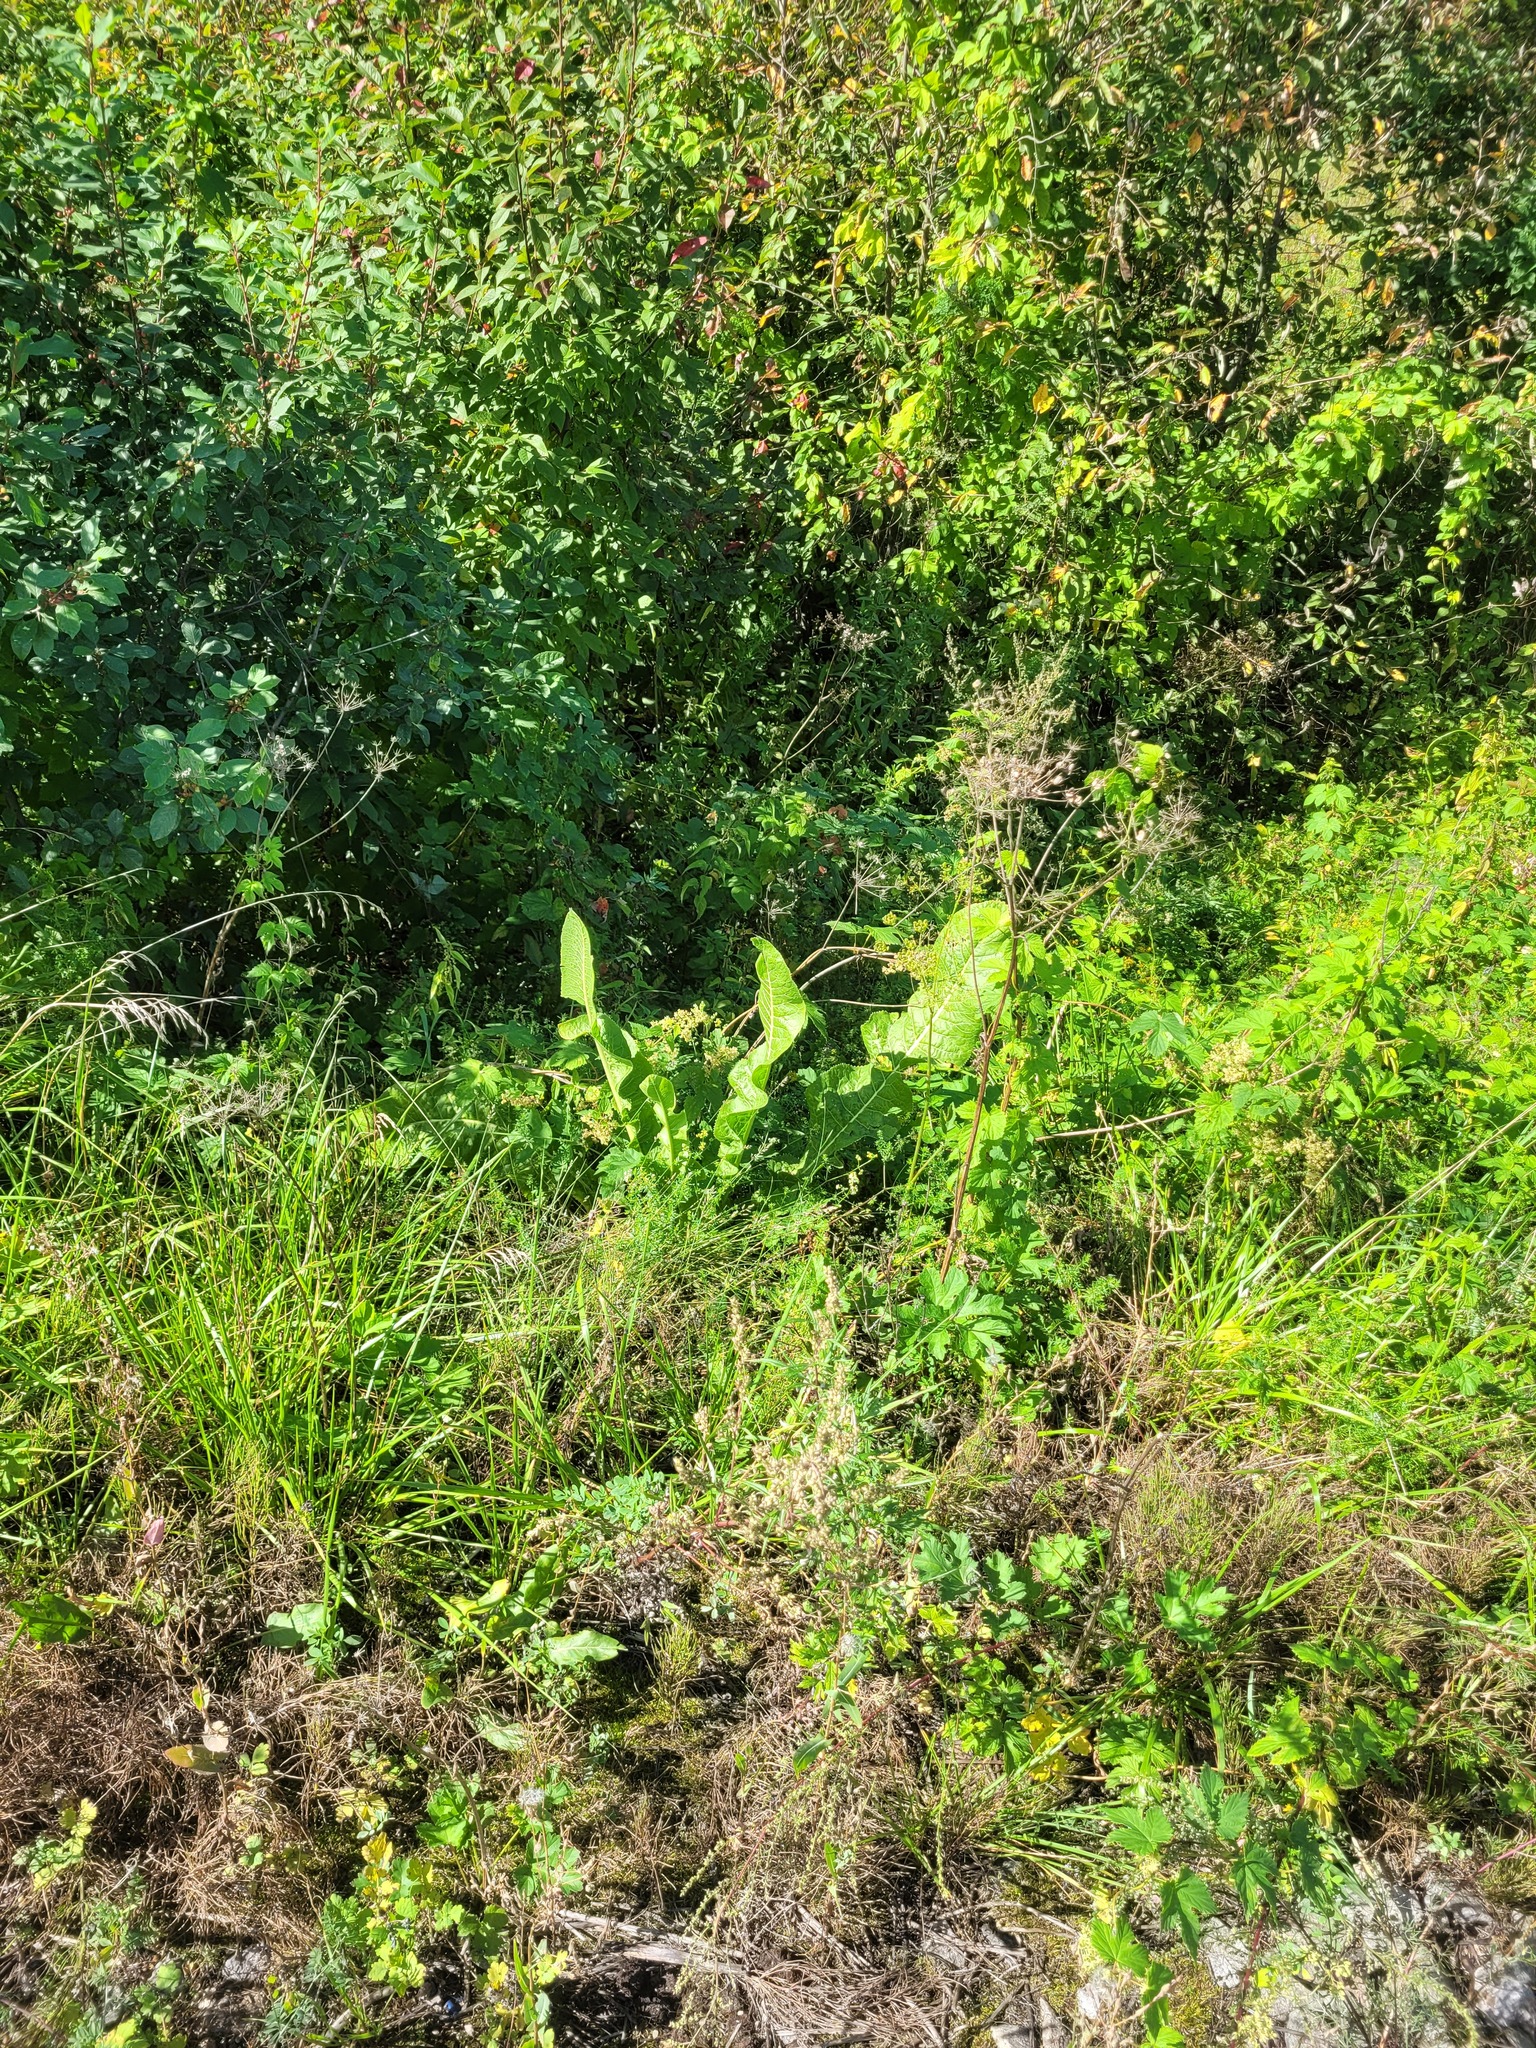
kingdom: Plantae
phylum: Tracheophyta
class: Magnoliopsida
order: Brassicales
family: Brassicaceae
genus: Armoracia
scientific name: Armoracia rusticana
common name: Horseradish
